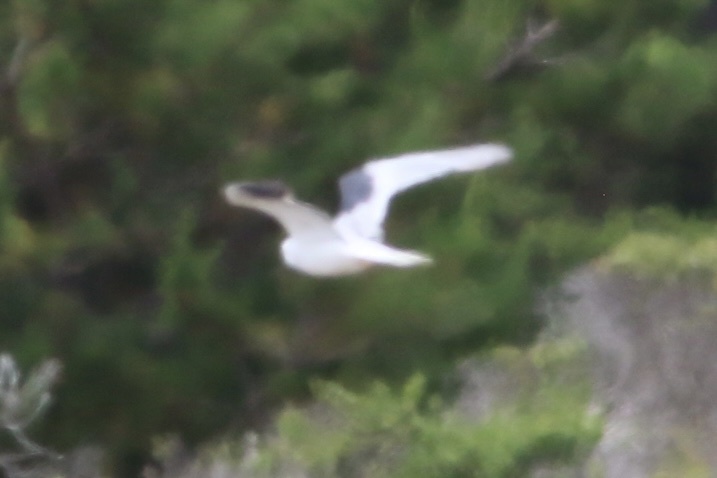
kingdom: Animalia
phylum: Chordata
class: Aves
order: Accipitriformes
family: Accipitridae
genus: Elanus
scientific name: Elanus leucurus
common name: White-tailed kite
